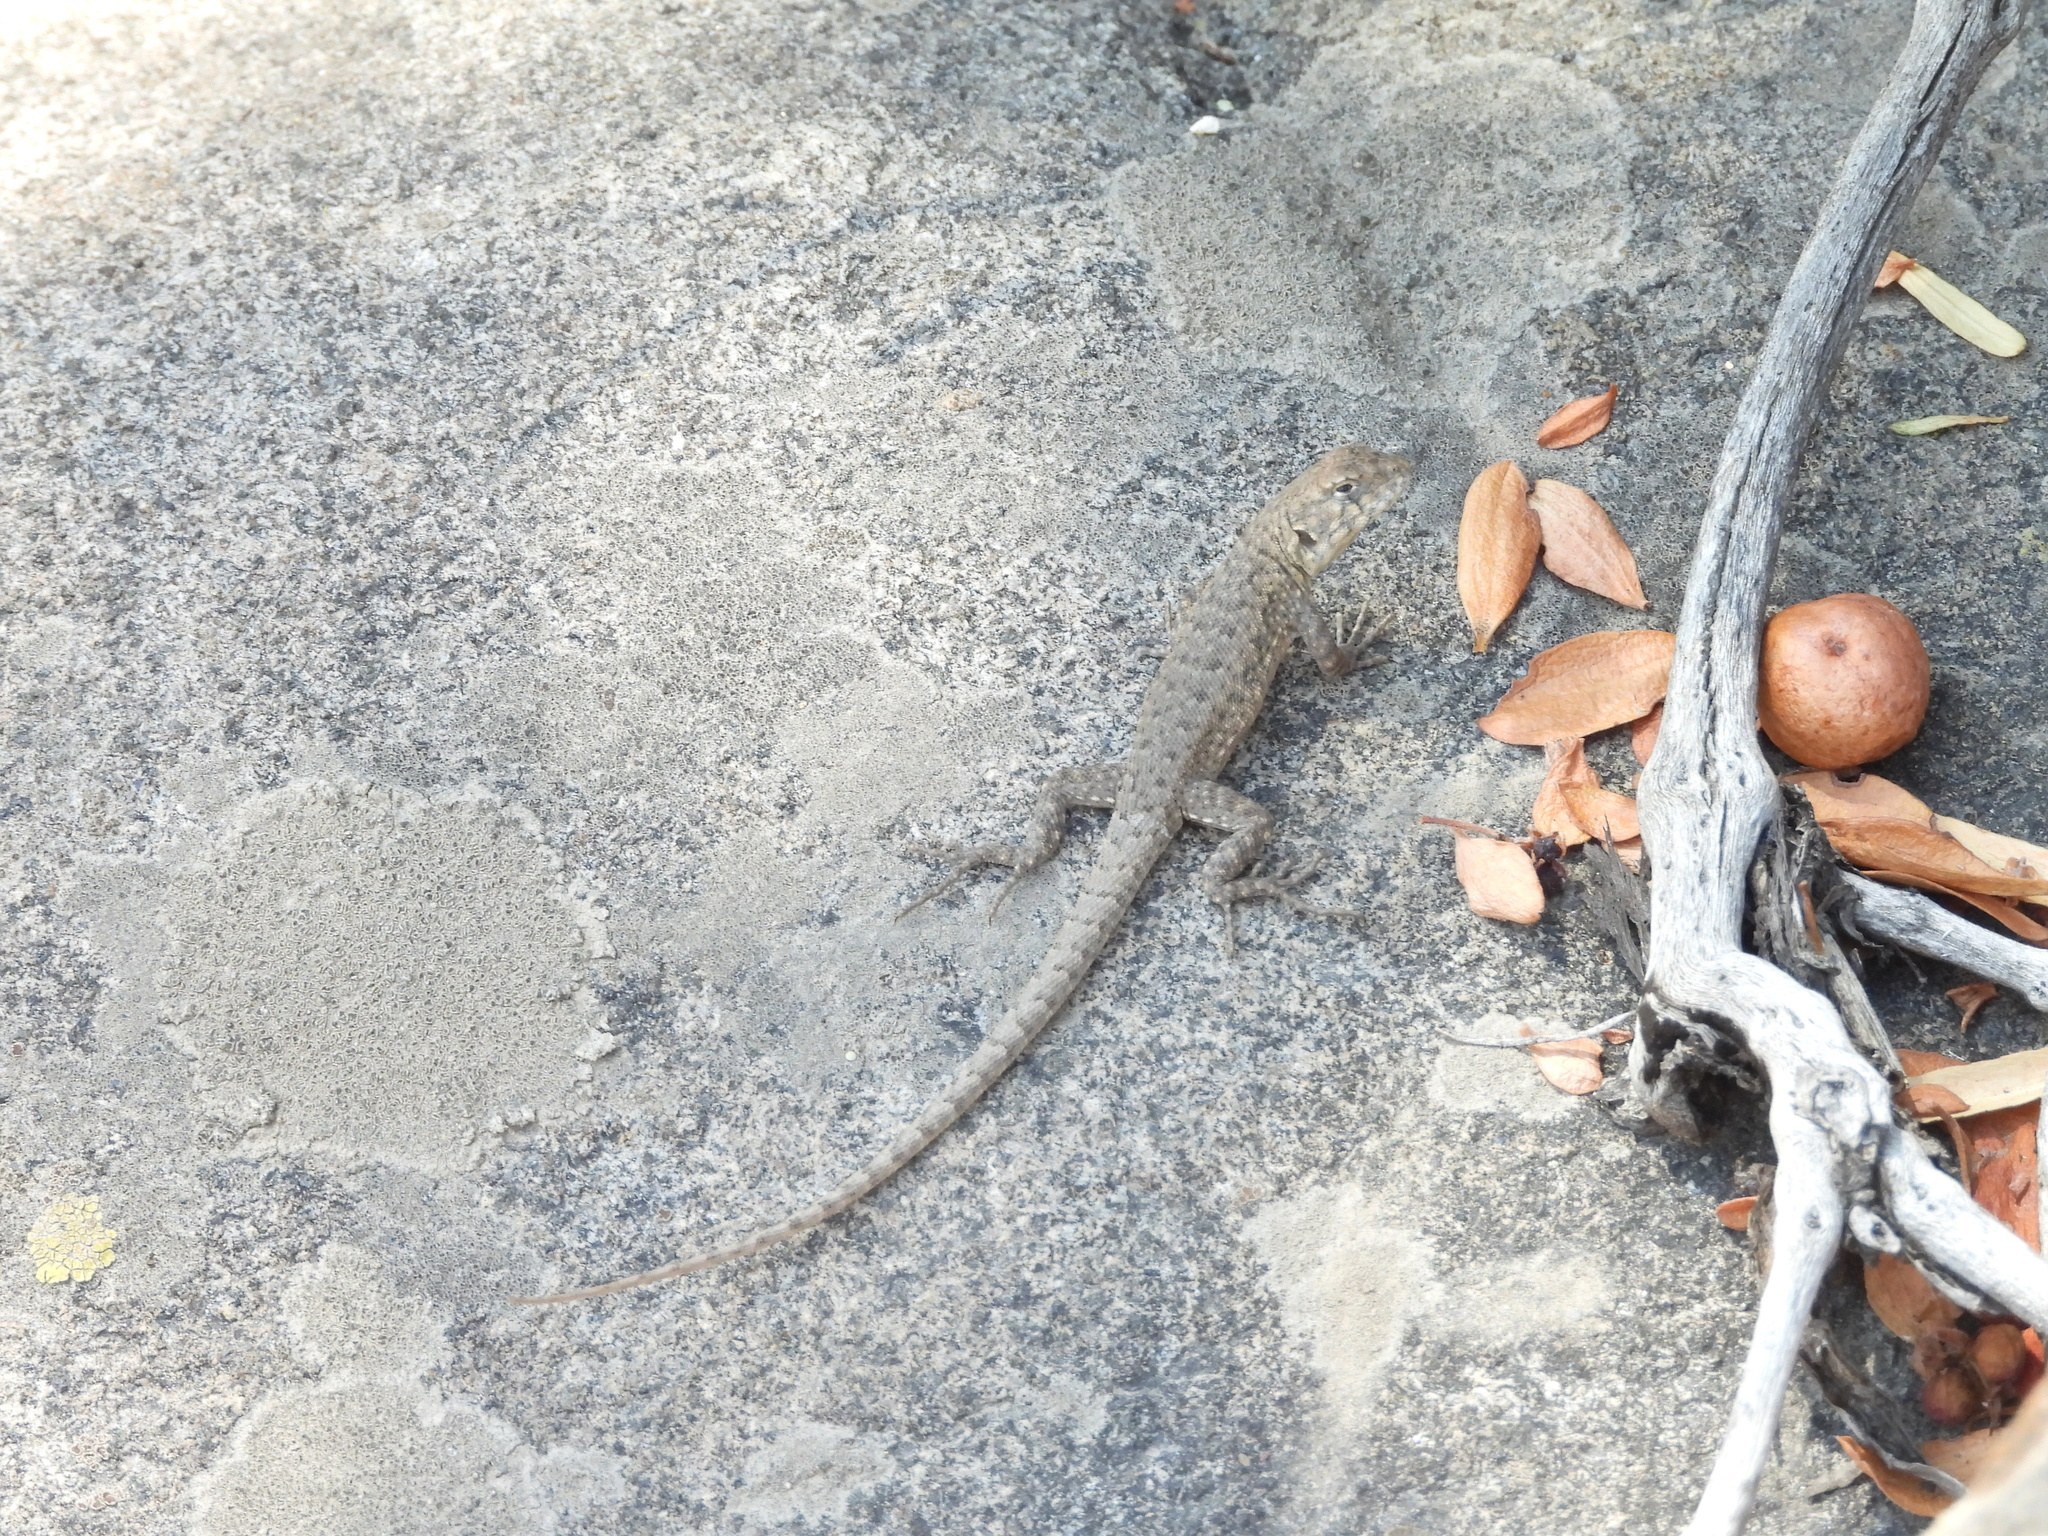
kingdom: Animalia
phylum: Chordata
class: Squamata
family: Liolaemidae
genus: Liolaemus
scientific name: Liolaemus monticola
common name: Peak tree iguana
